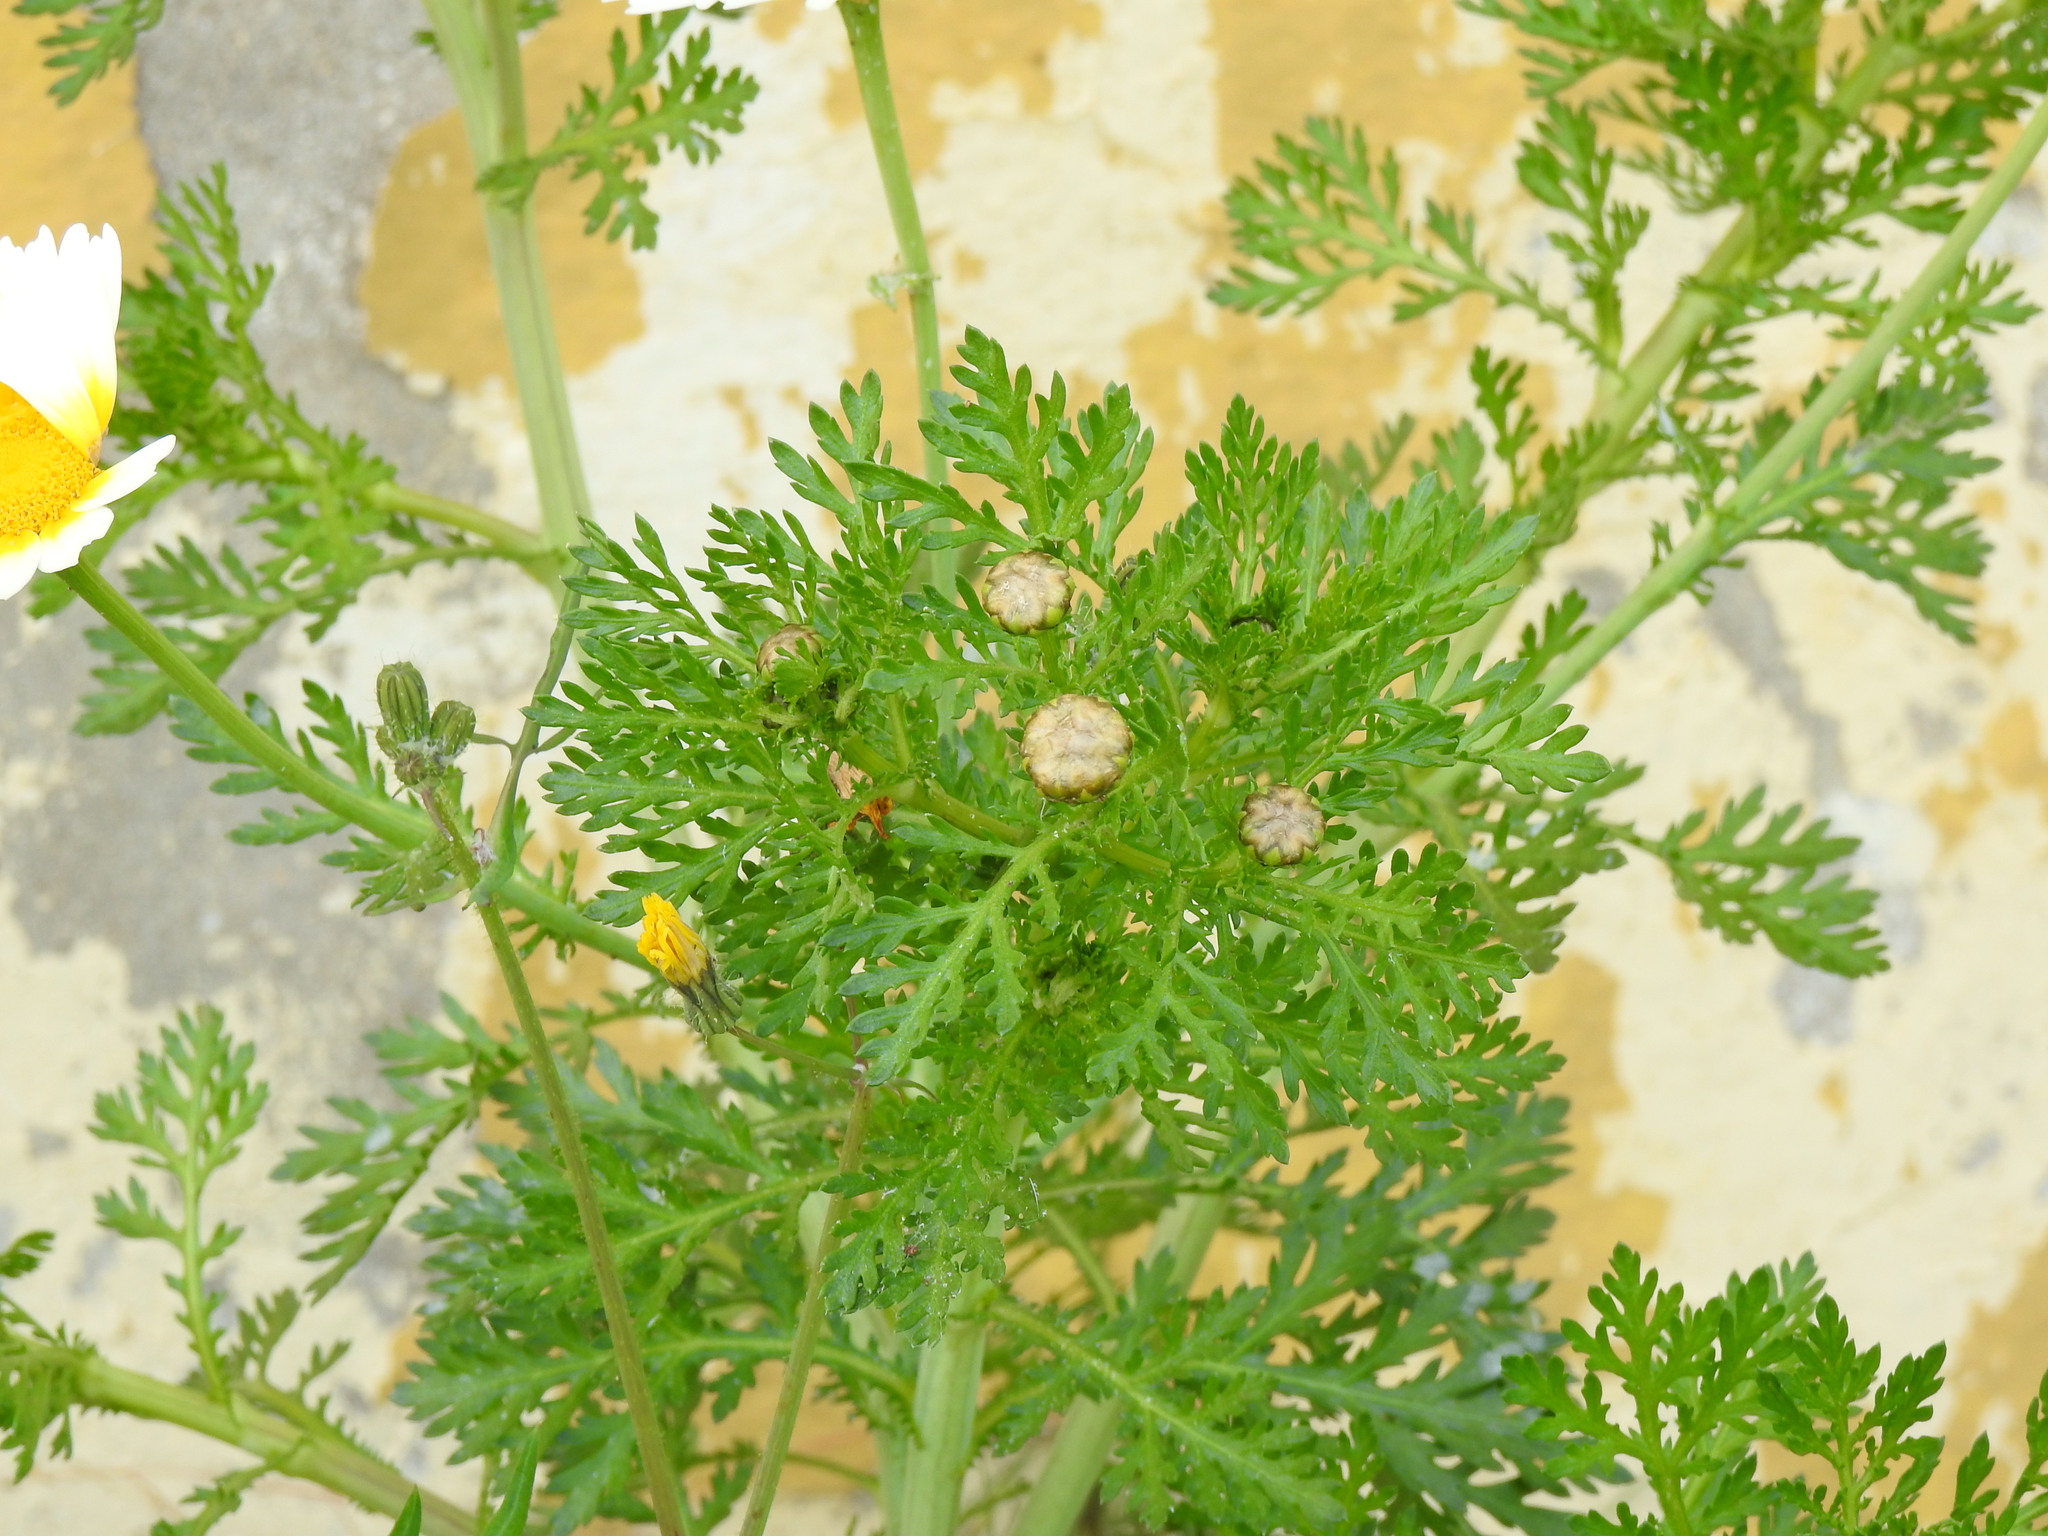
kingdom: Plantae
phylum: Tracheophyta
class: Magnoliopsida
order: Asterales
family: Asteraceae
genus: Glebionis
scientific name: Glebionis coronaria
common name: Crowndaisy
